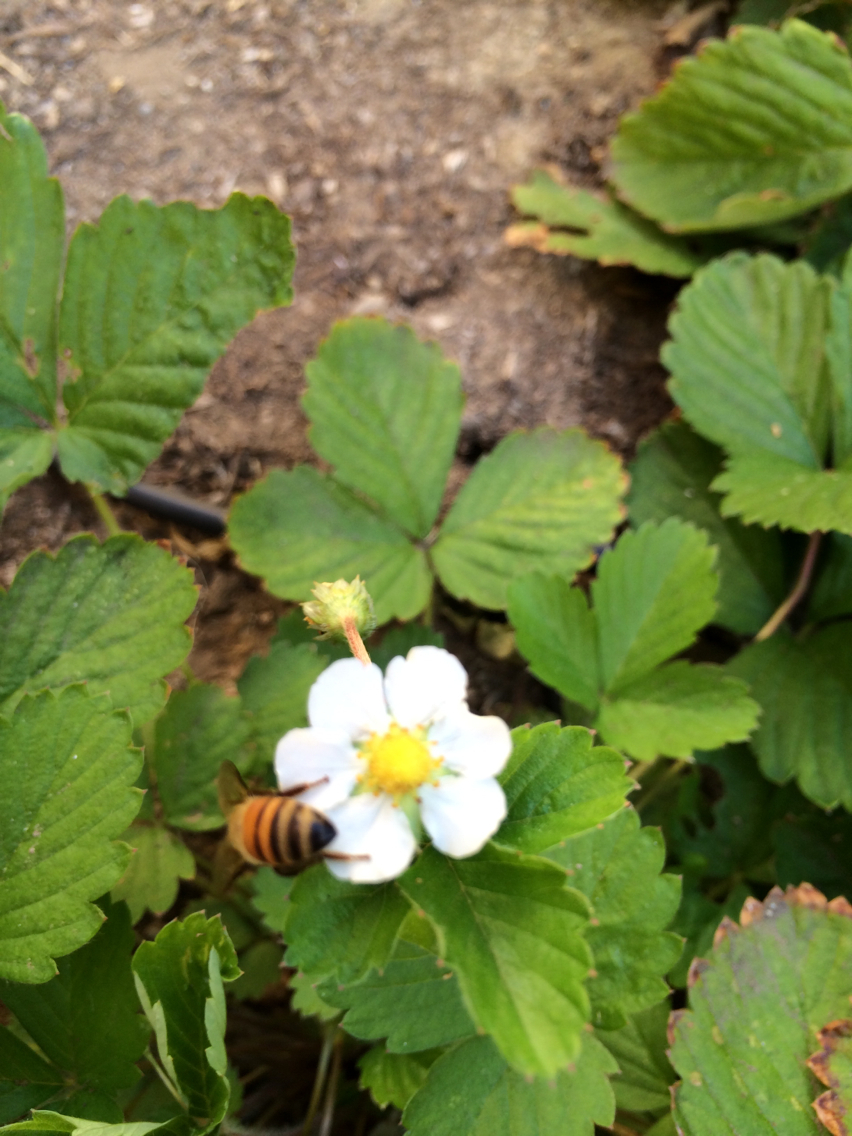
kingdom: Animalia
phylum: Arthropoda
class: Insecta
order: Hymenoptera
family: Apidae
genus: Apis
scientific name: Apis mellifera
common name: Honey bee
